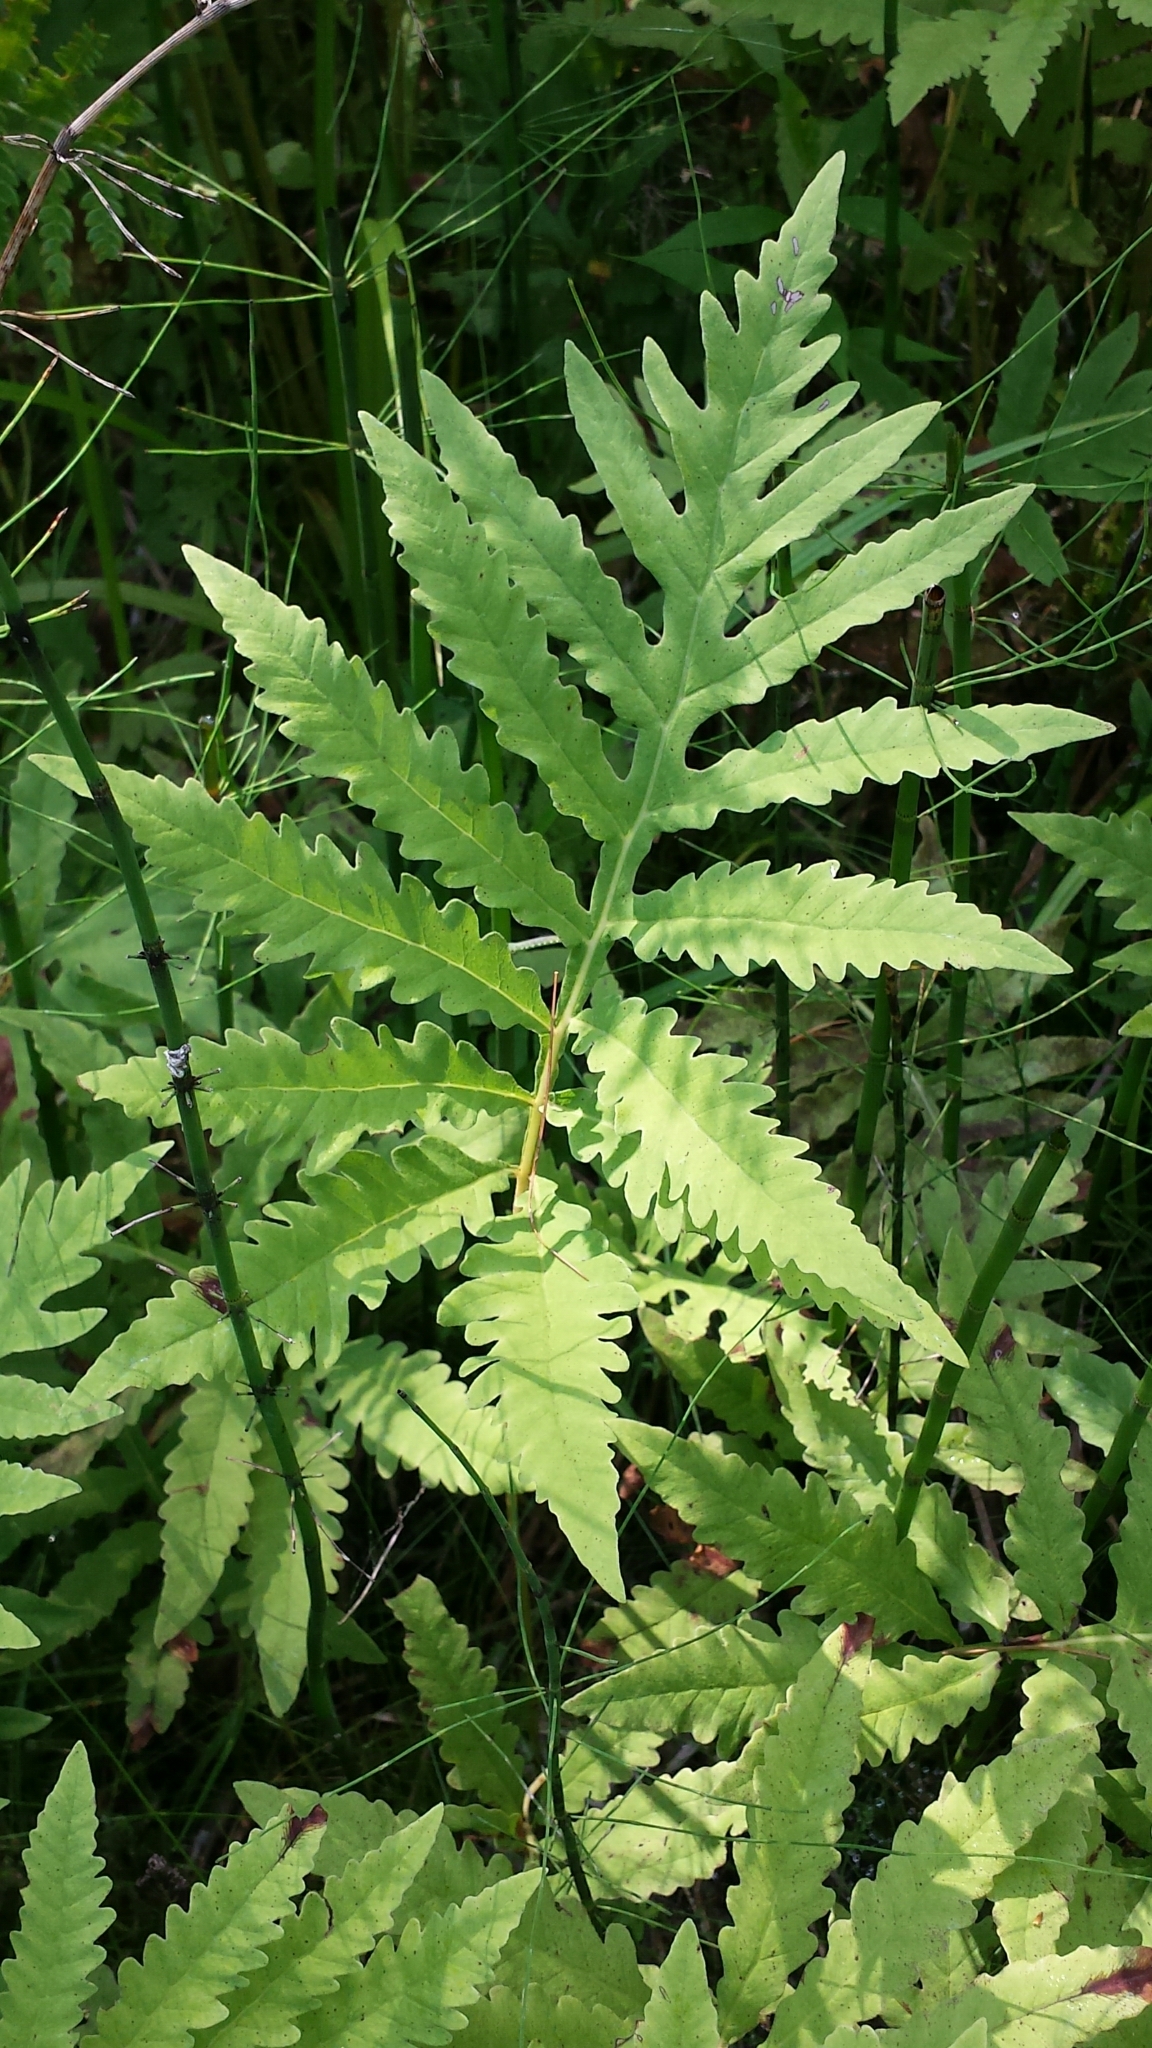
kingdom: Plantae
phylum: Tracheophyta
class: Polypodiopsida
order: Polypodiales
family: Onocleaceae
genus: Onoclea
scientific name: Onoclea sensibilis
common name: Sensitive fern
